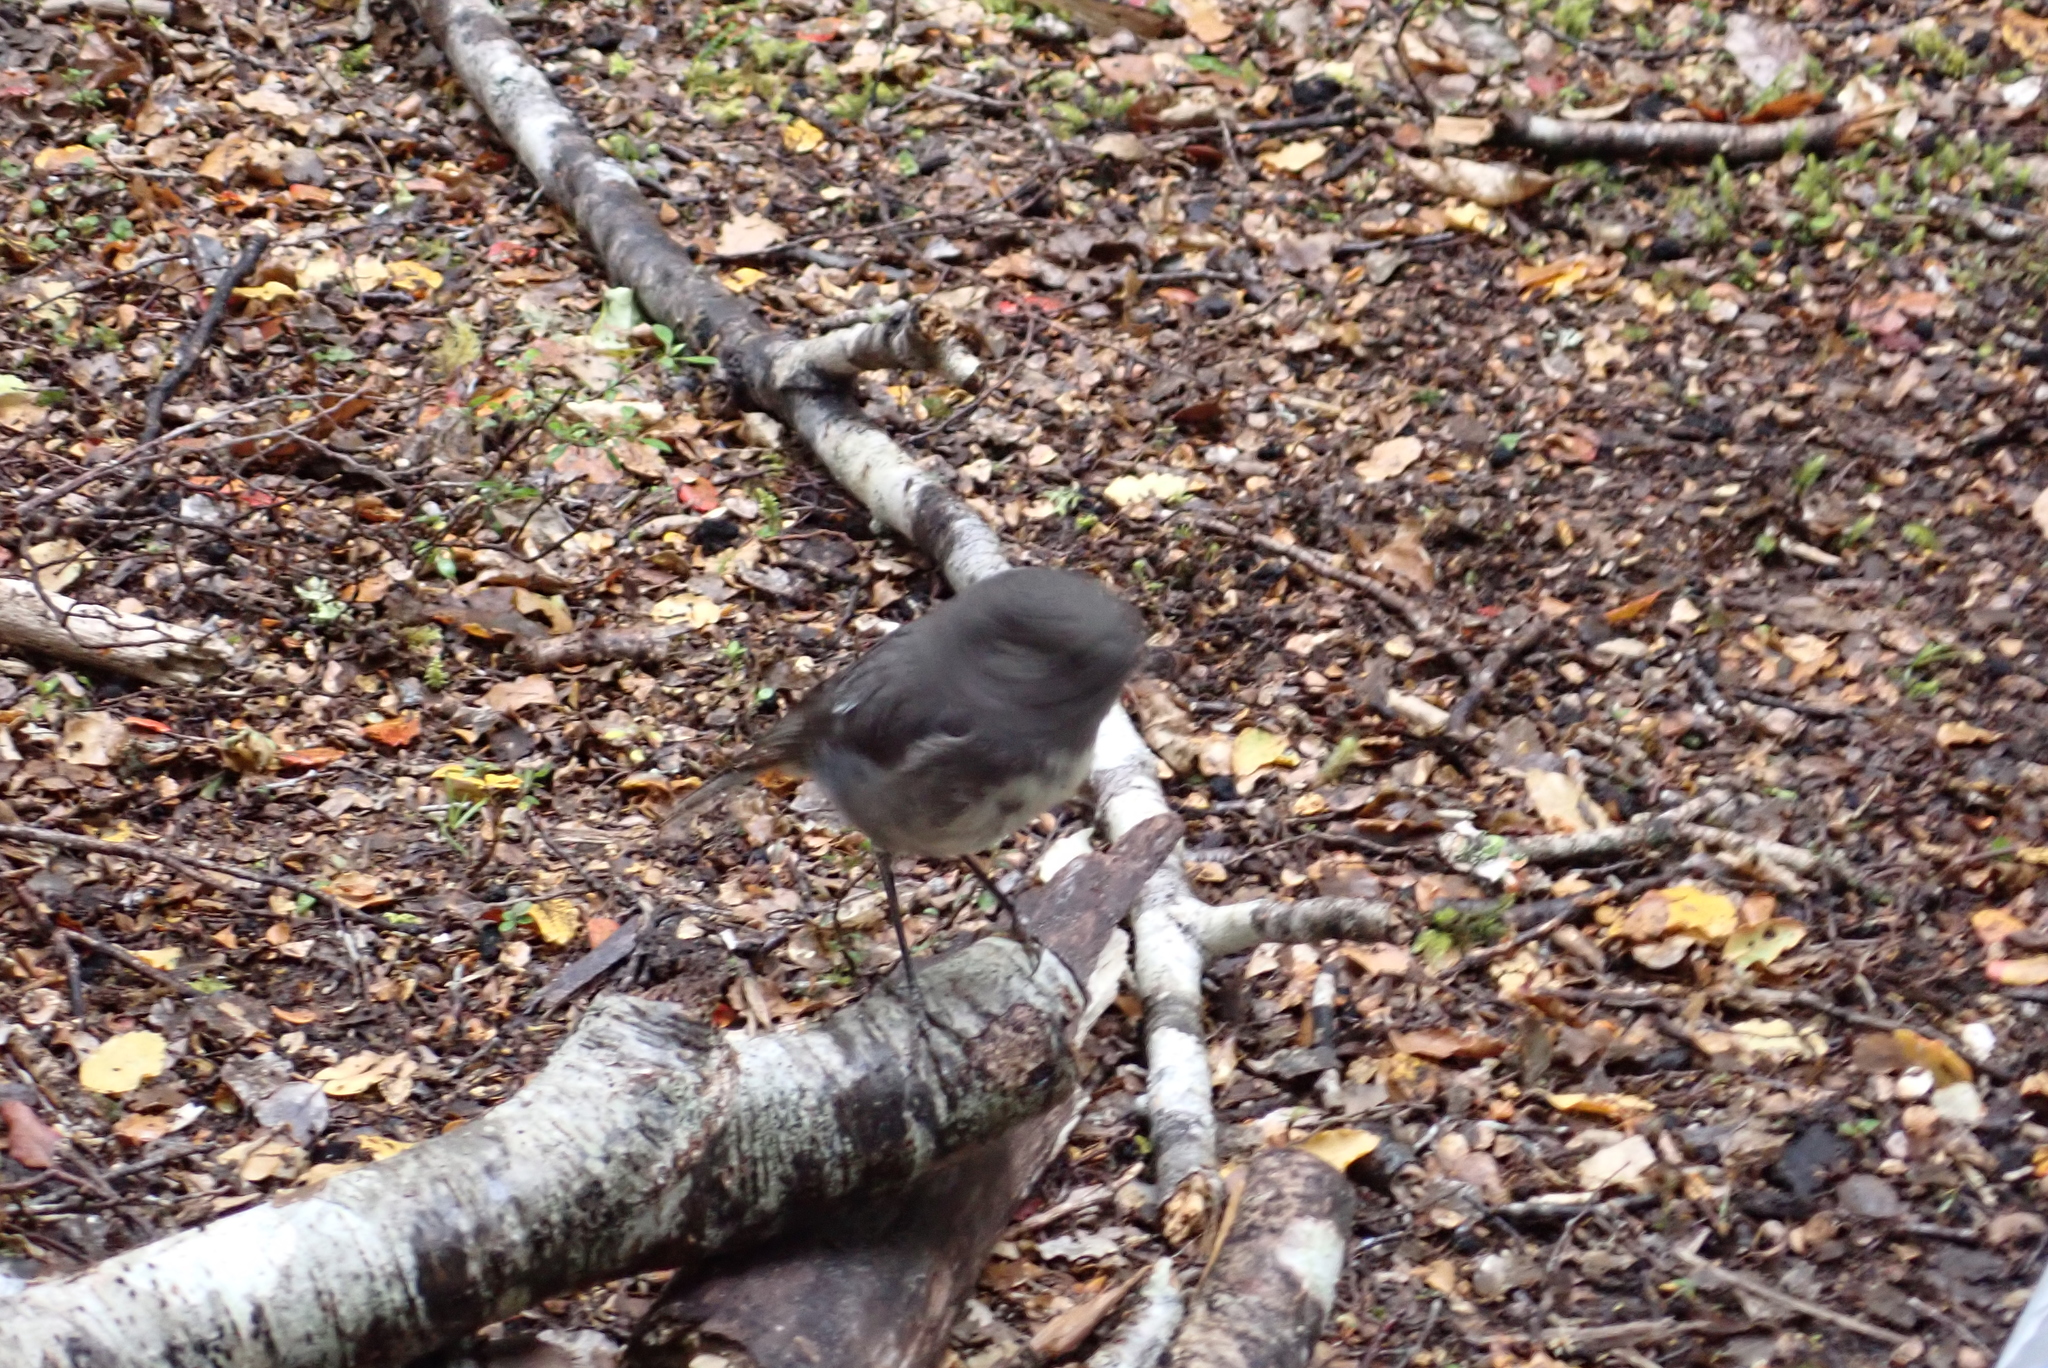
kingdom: Animalia
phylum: Chordata
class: Aves
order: Passeriformes
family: Petroicidae
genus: Petroica
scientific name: Petroica australis
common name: New zealand robin
